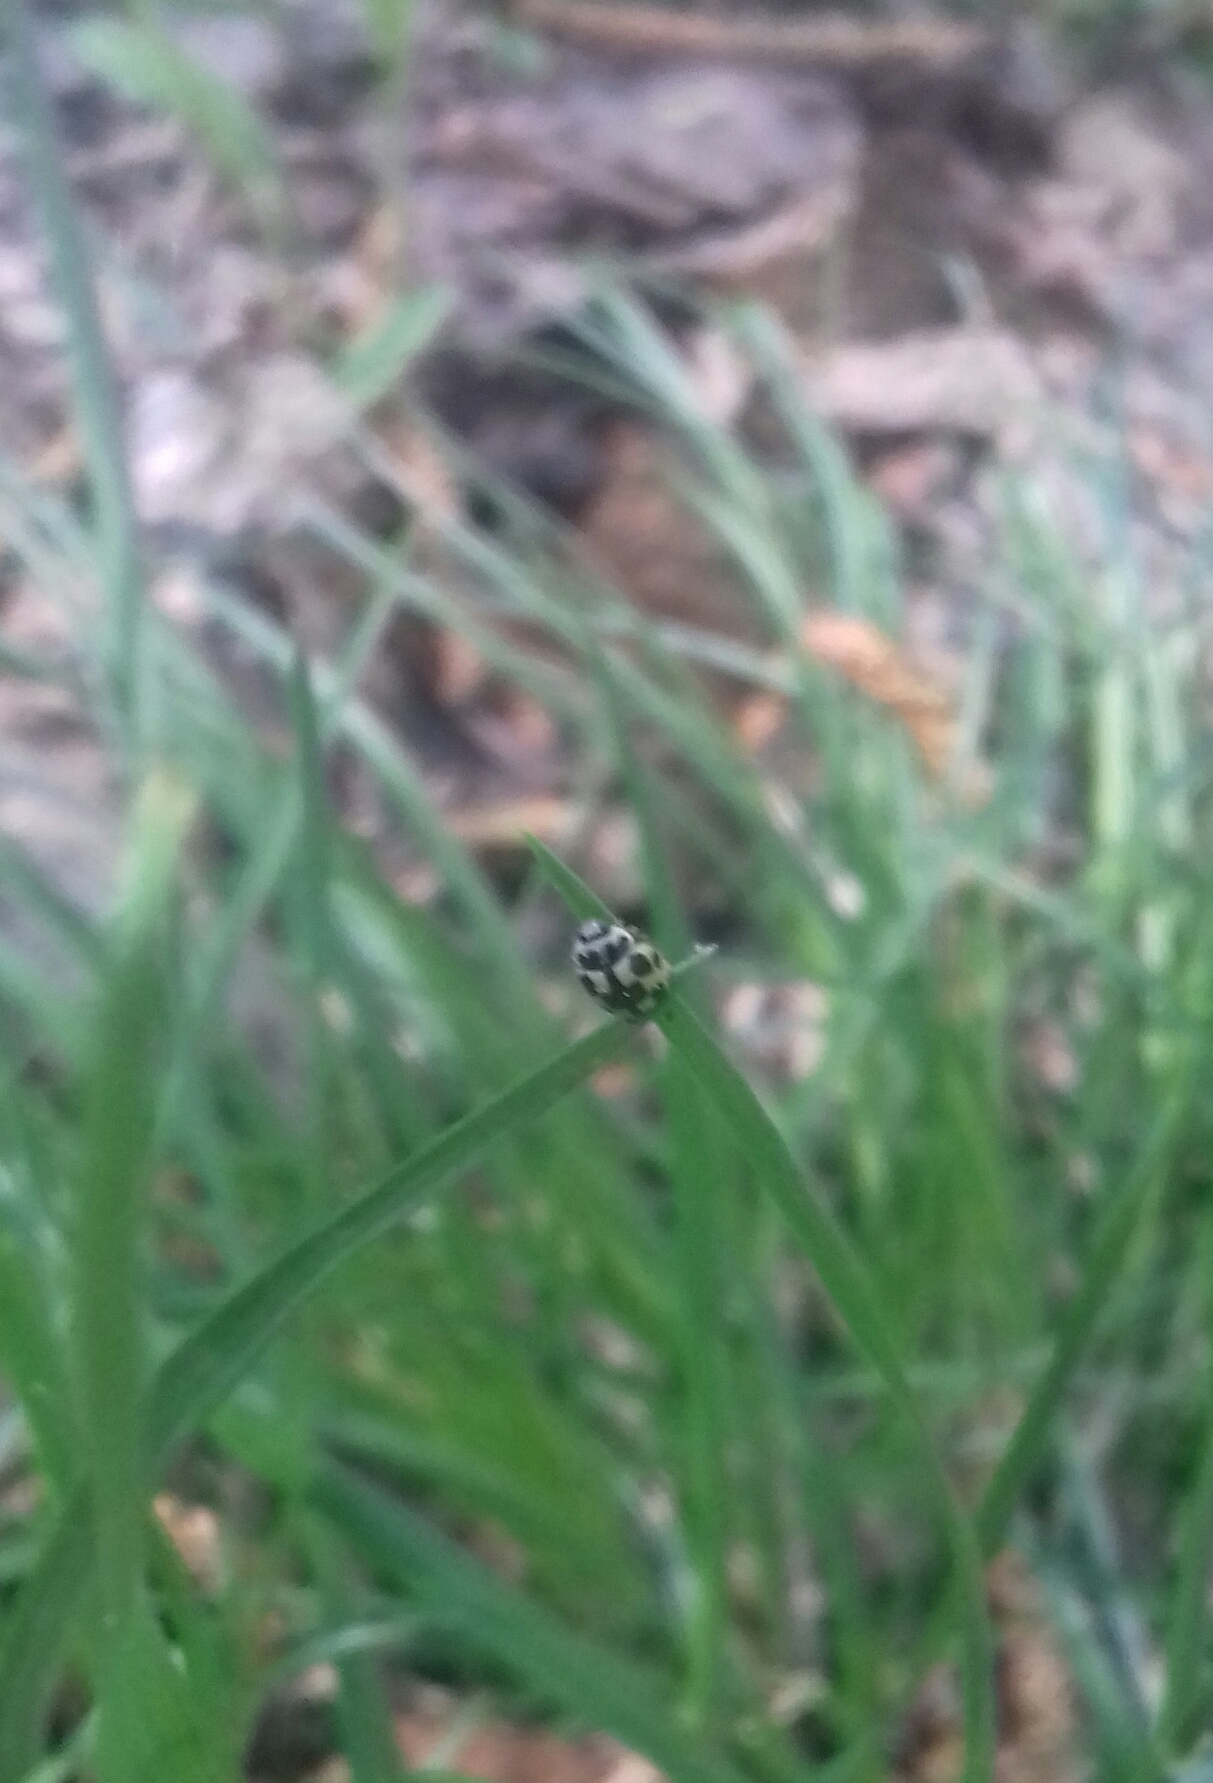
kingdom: Animalia
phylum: Arthropoda
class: Insecta
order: Coleoptera
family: Coccinellidae
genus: Propylaea
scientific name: Propylaea quatuordecimpunctata
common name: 14-spotted ladybird beetle
